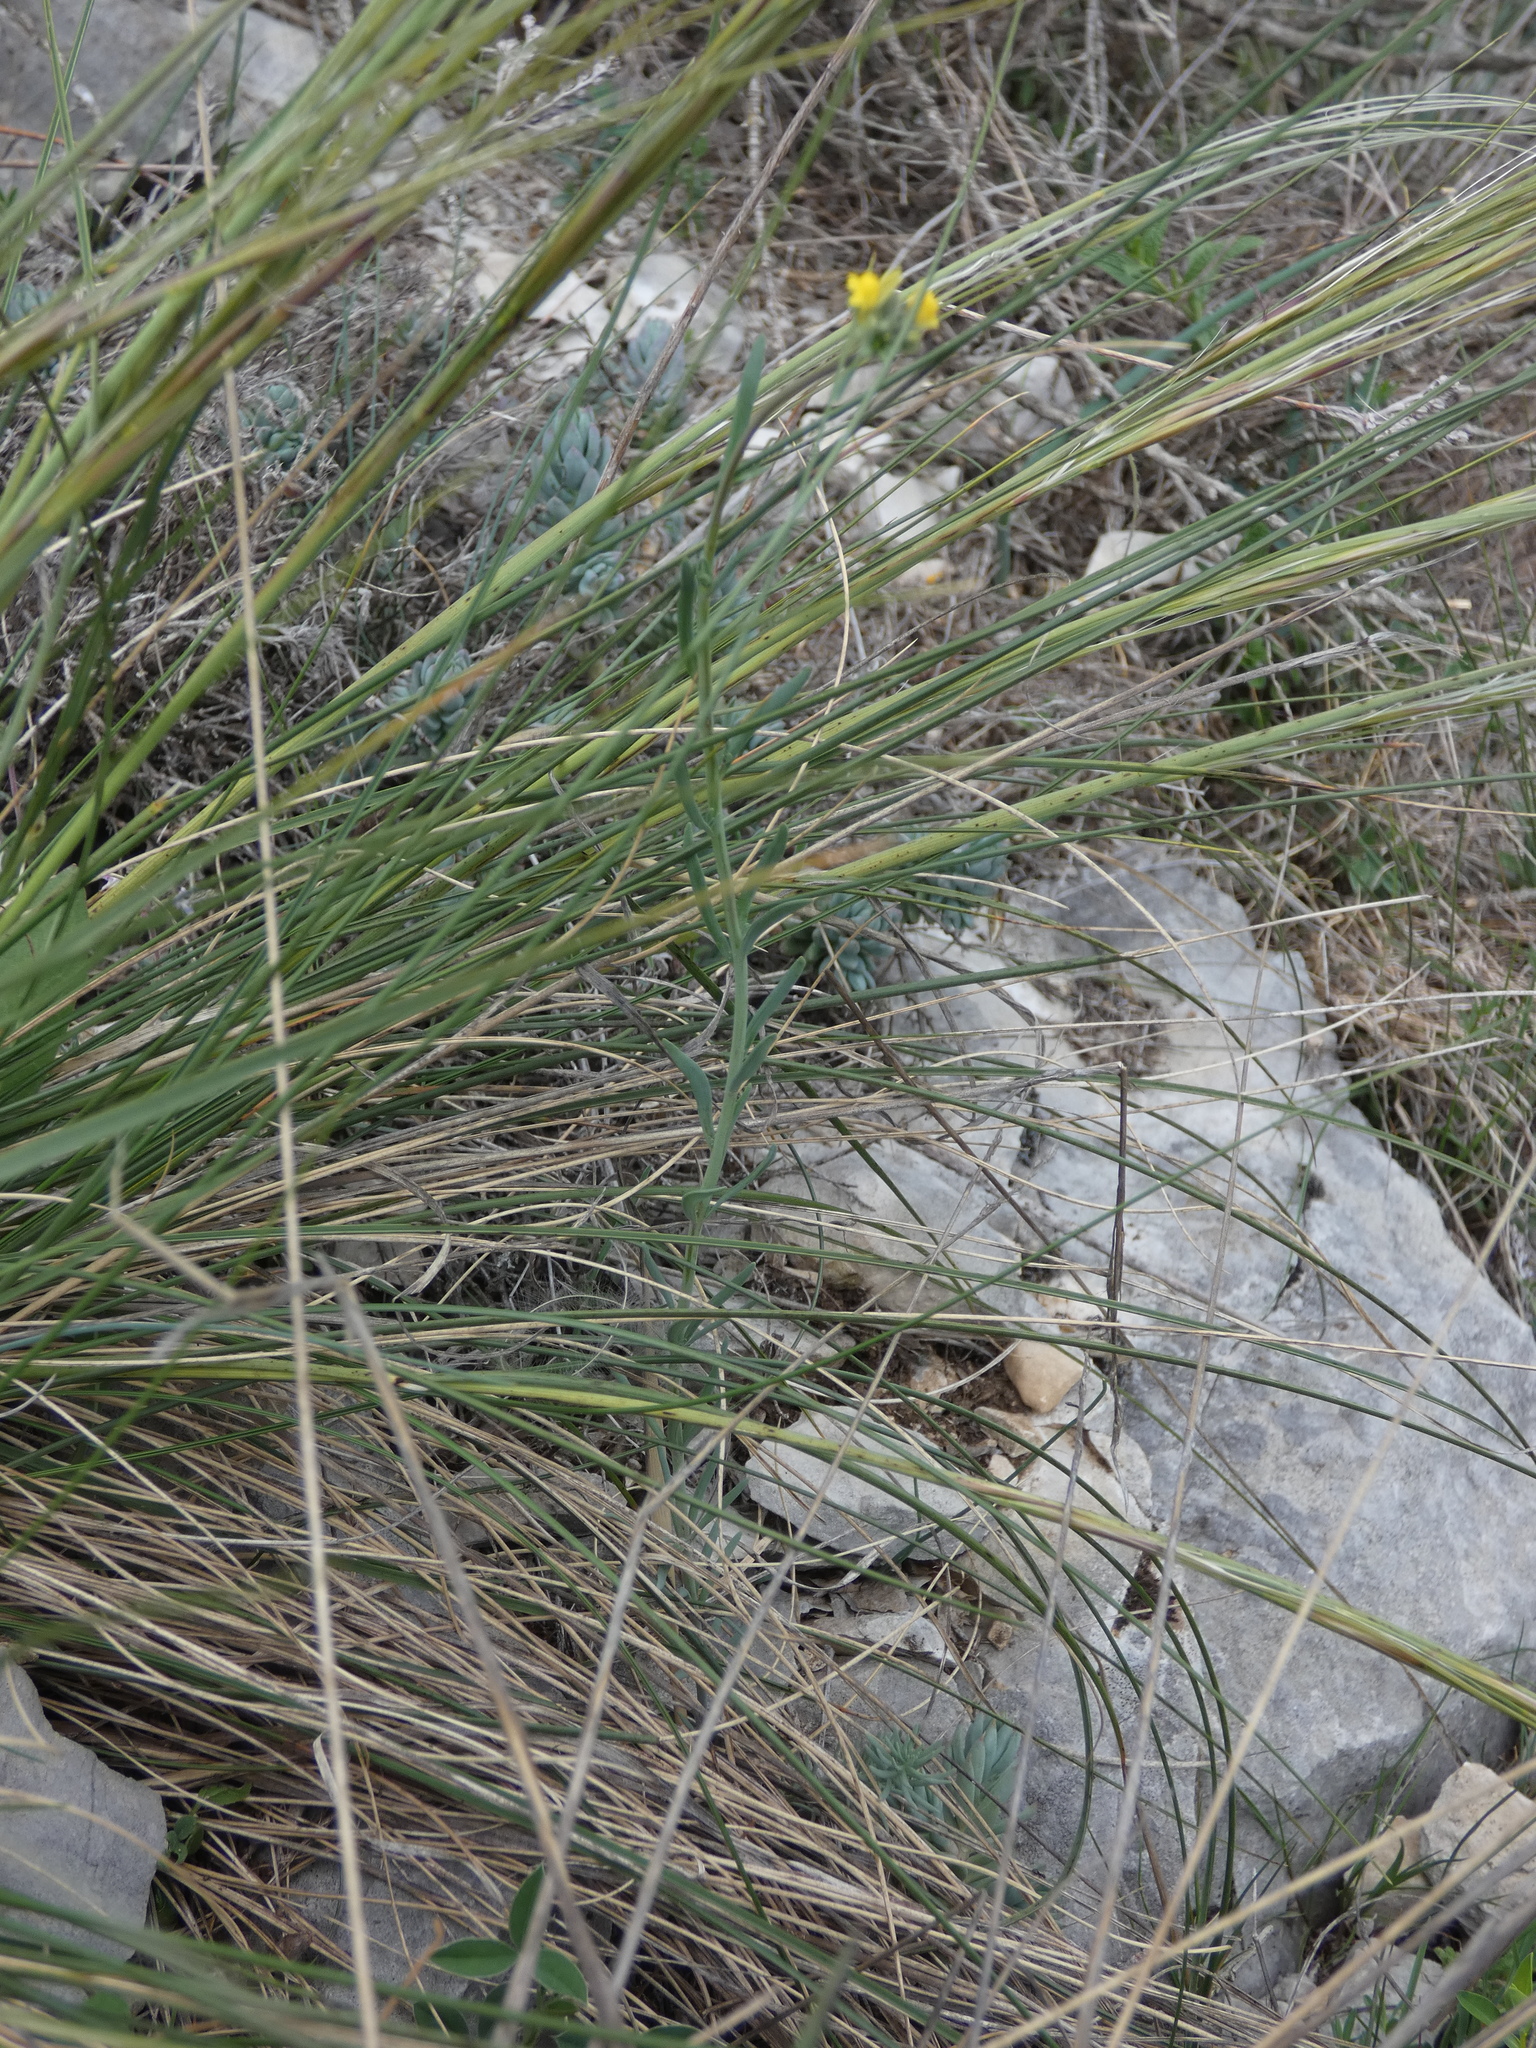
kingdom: Plantae
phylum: Tracheophyta
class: Magnoliopsida
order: Lamiales
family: Plantaginaceae
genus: Linaria
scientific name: Linaria simplex
